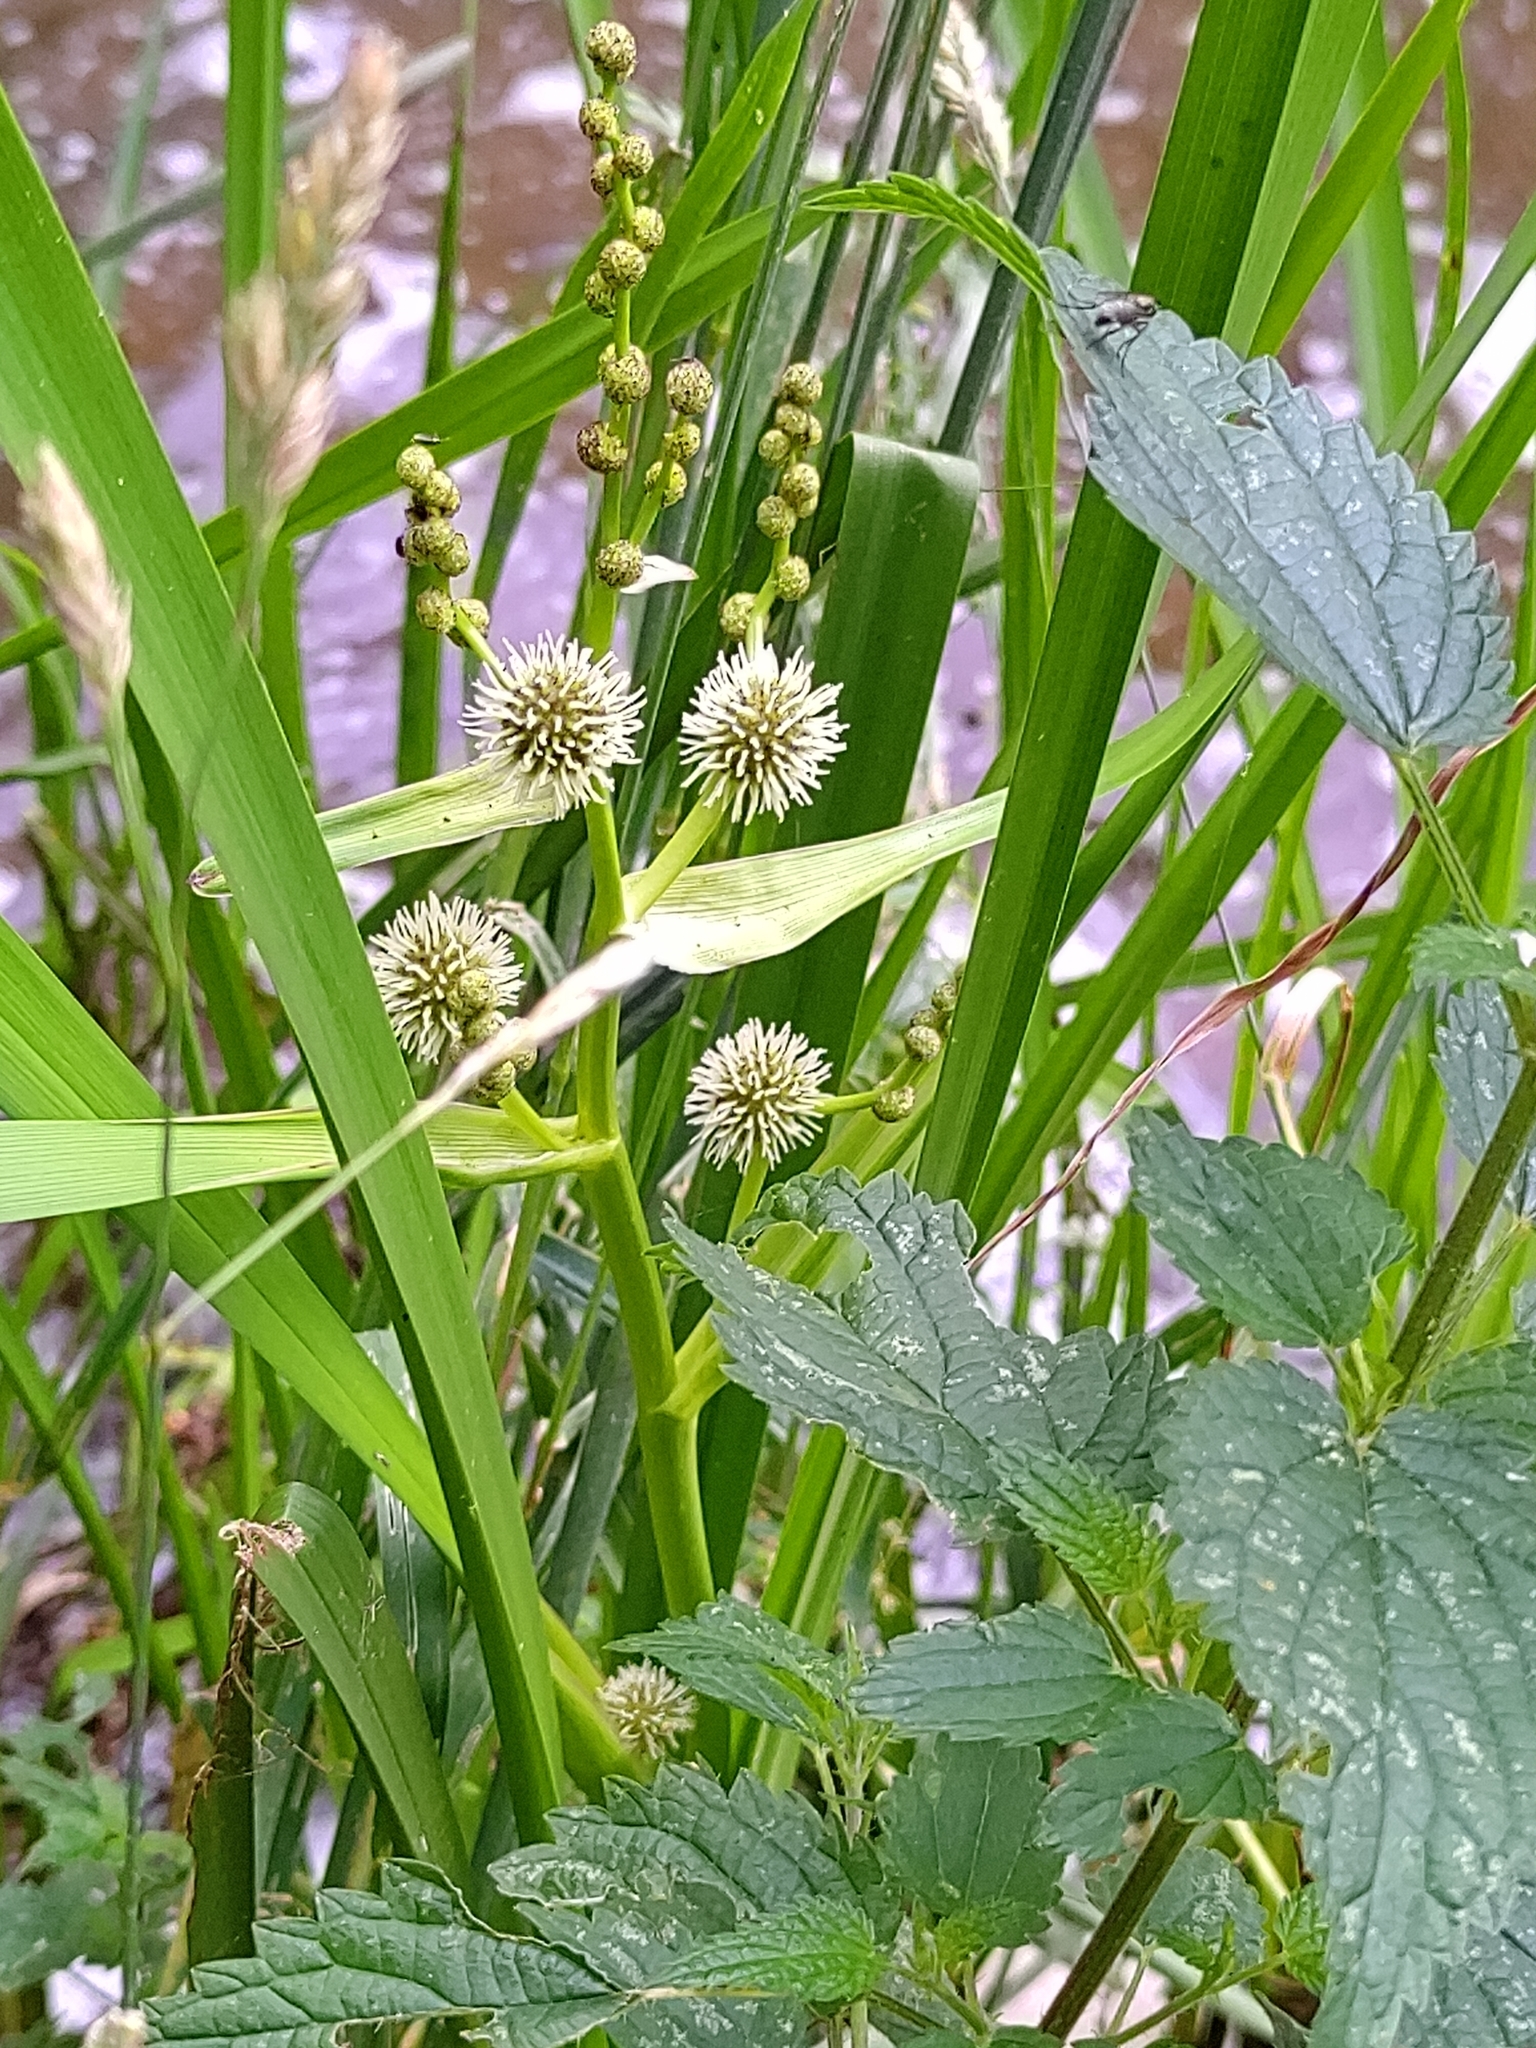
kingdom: Plantae
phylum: Tracheophyta
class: Liliopsida
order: Poales
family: Typhaceae
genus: Sparganium
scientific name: Sparganium erectum
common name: Branched bur-reed
